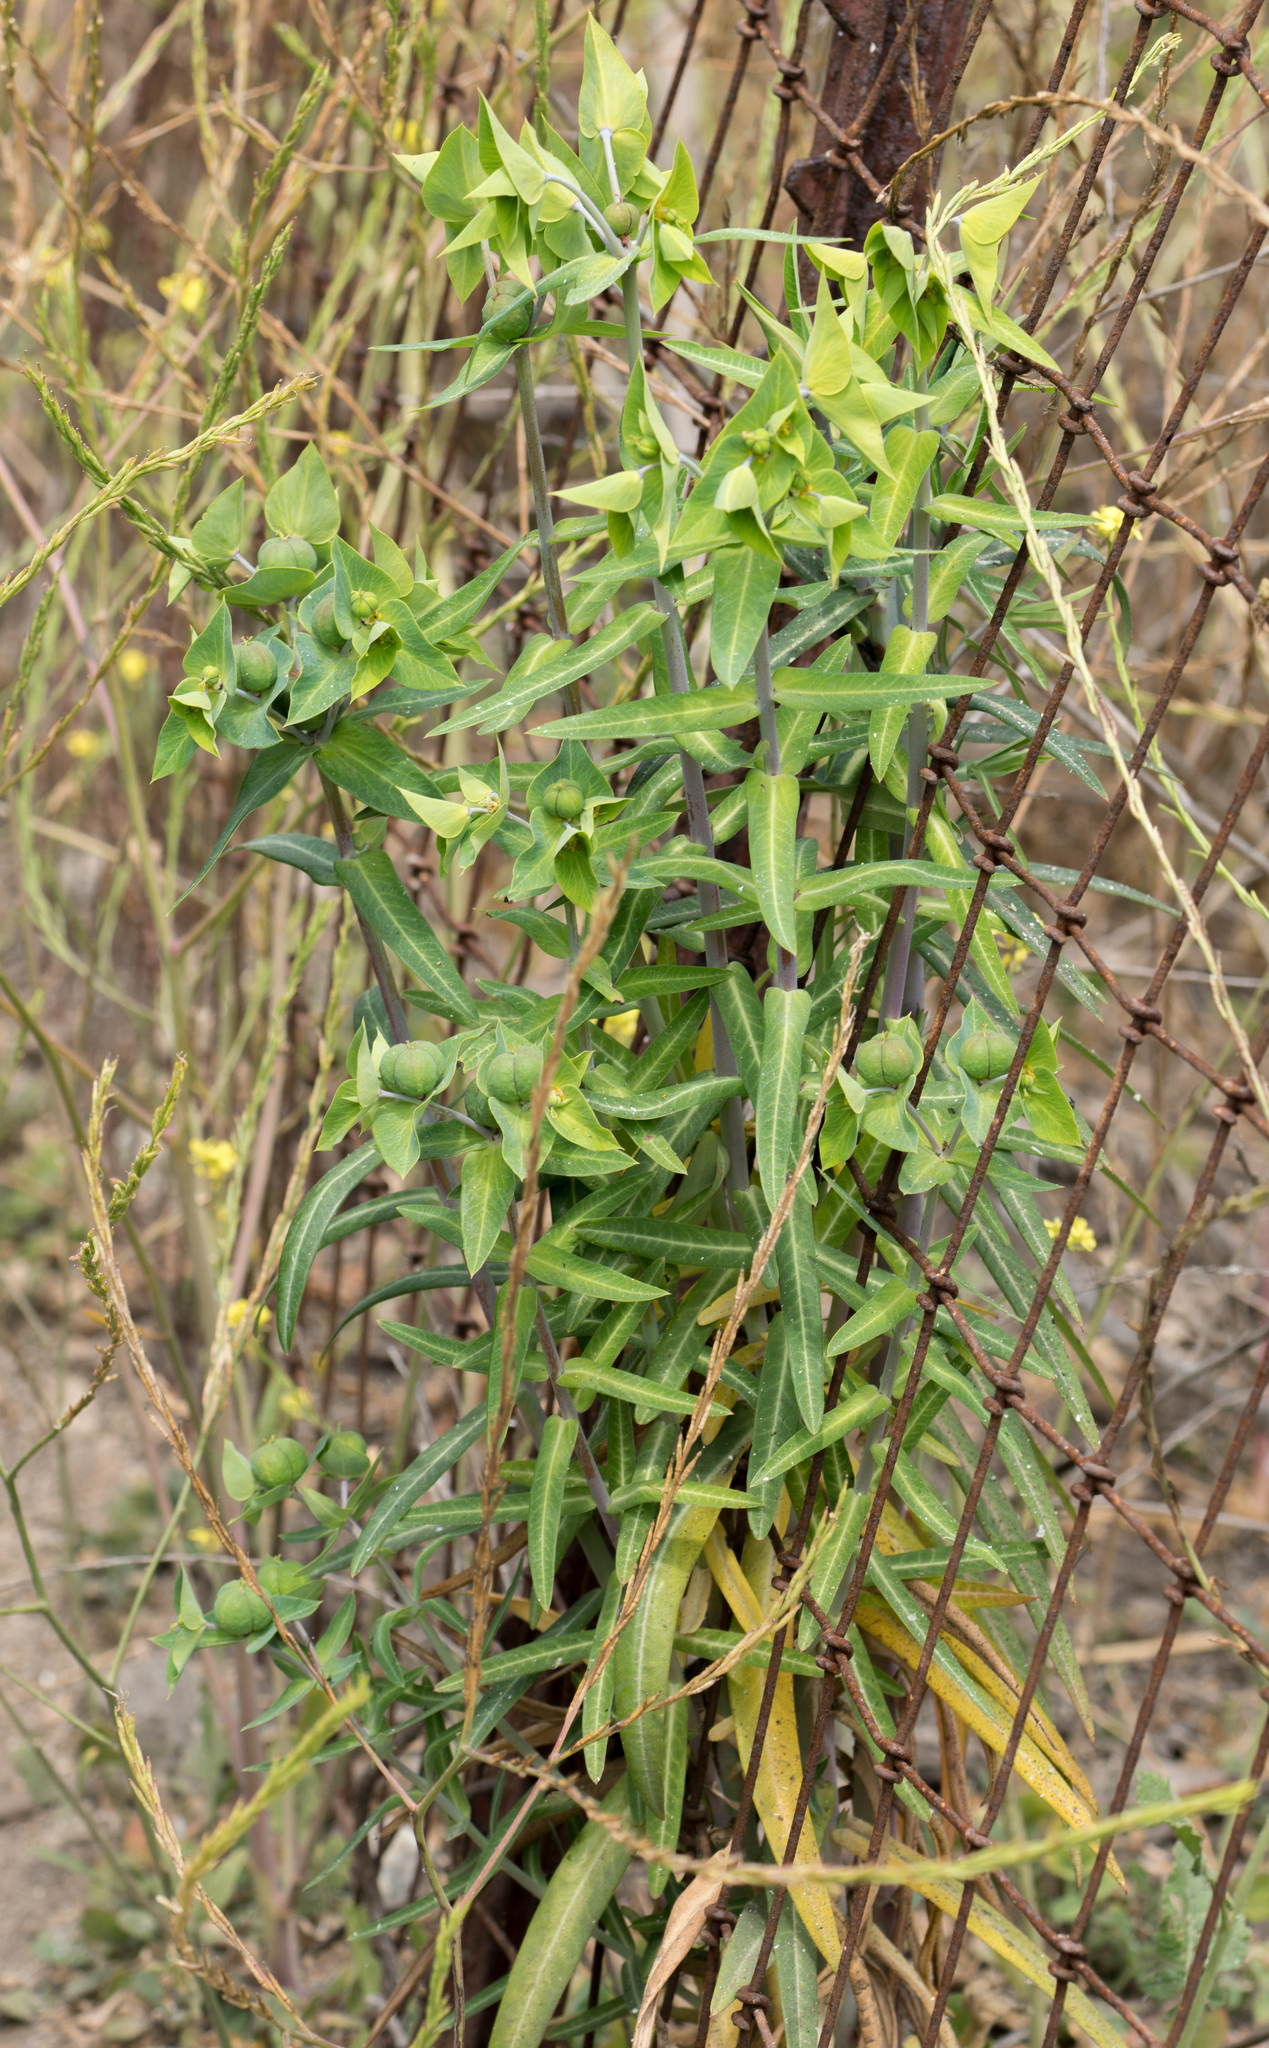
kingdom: Plantae
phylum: Tracheophyta
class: Magnoliopsida
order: Malpighiales
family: Euphorbiaceae
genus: Euphorbia
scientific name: Euphorbia lathyris
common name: Caper spurge
